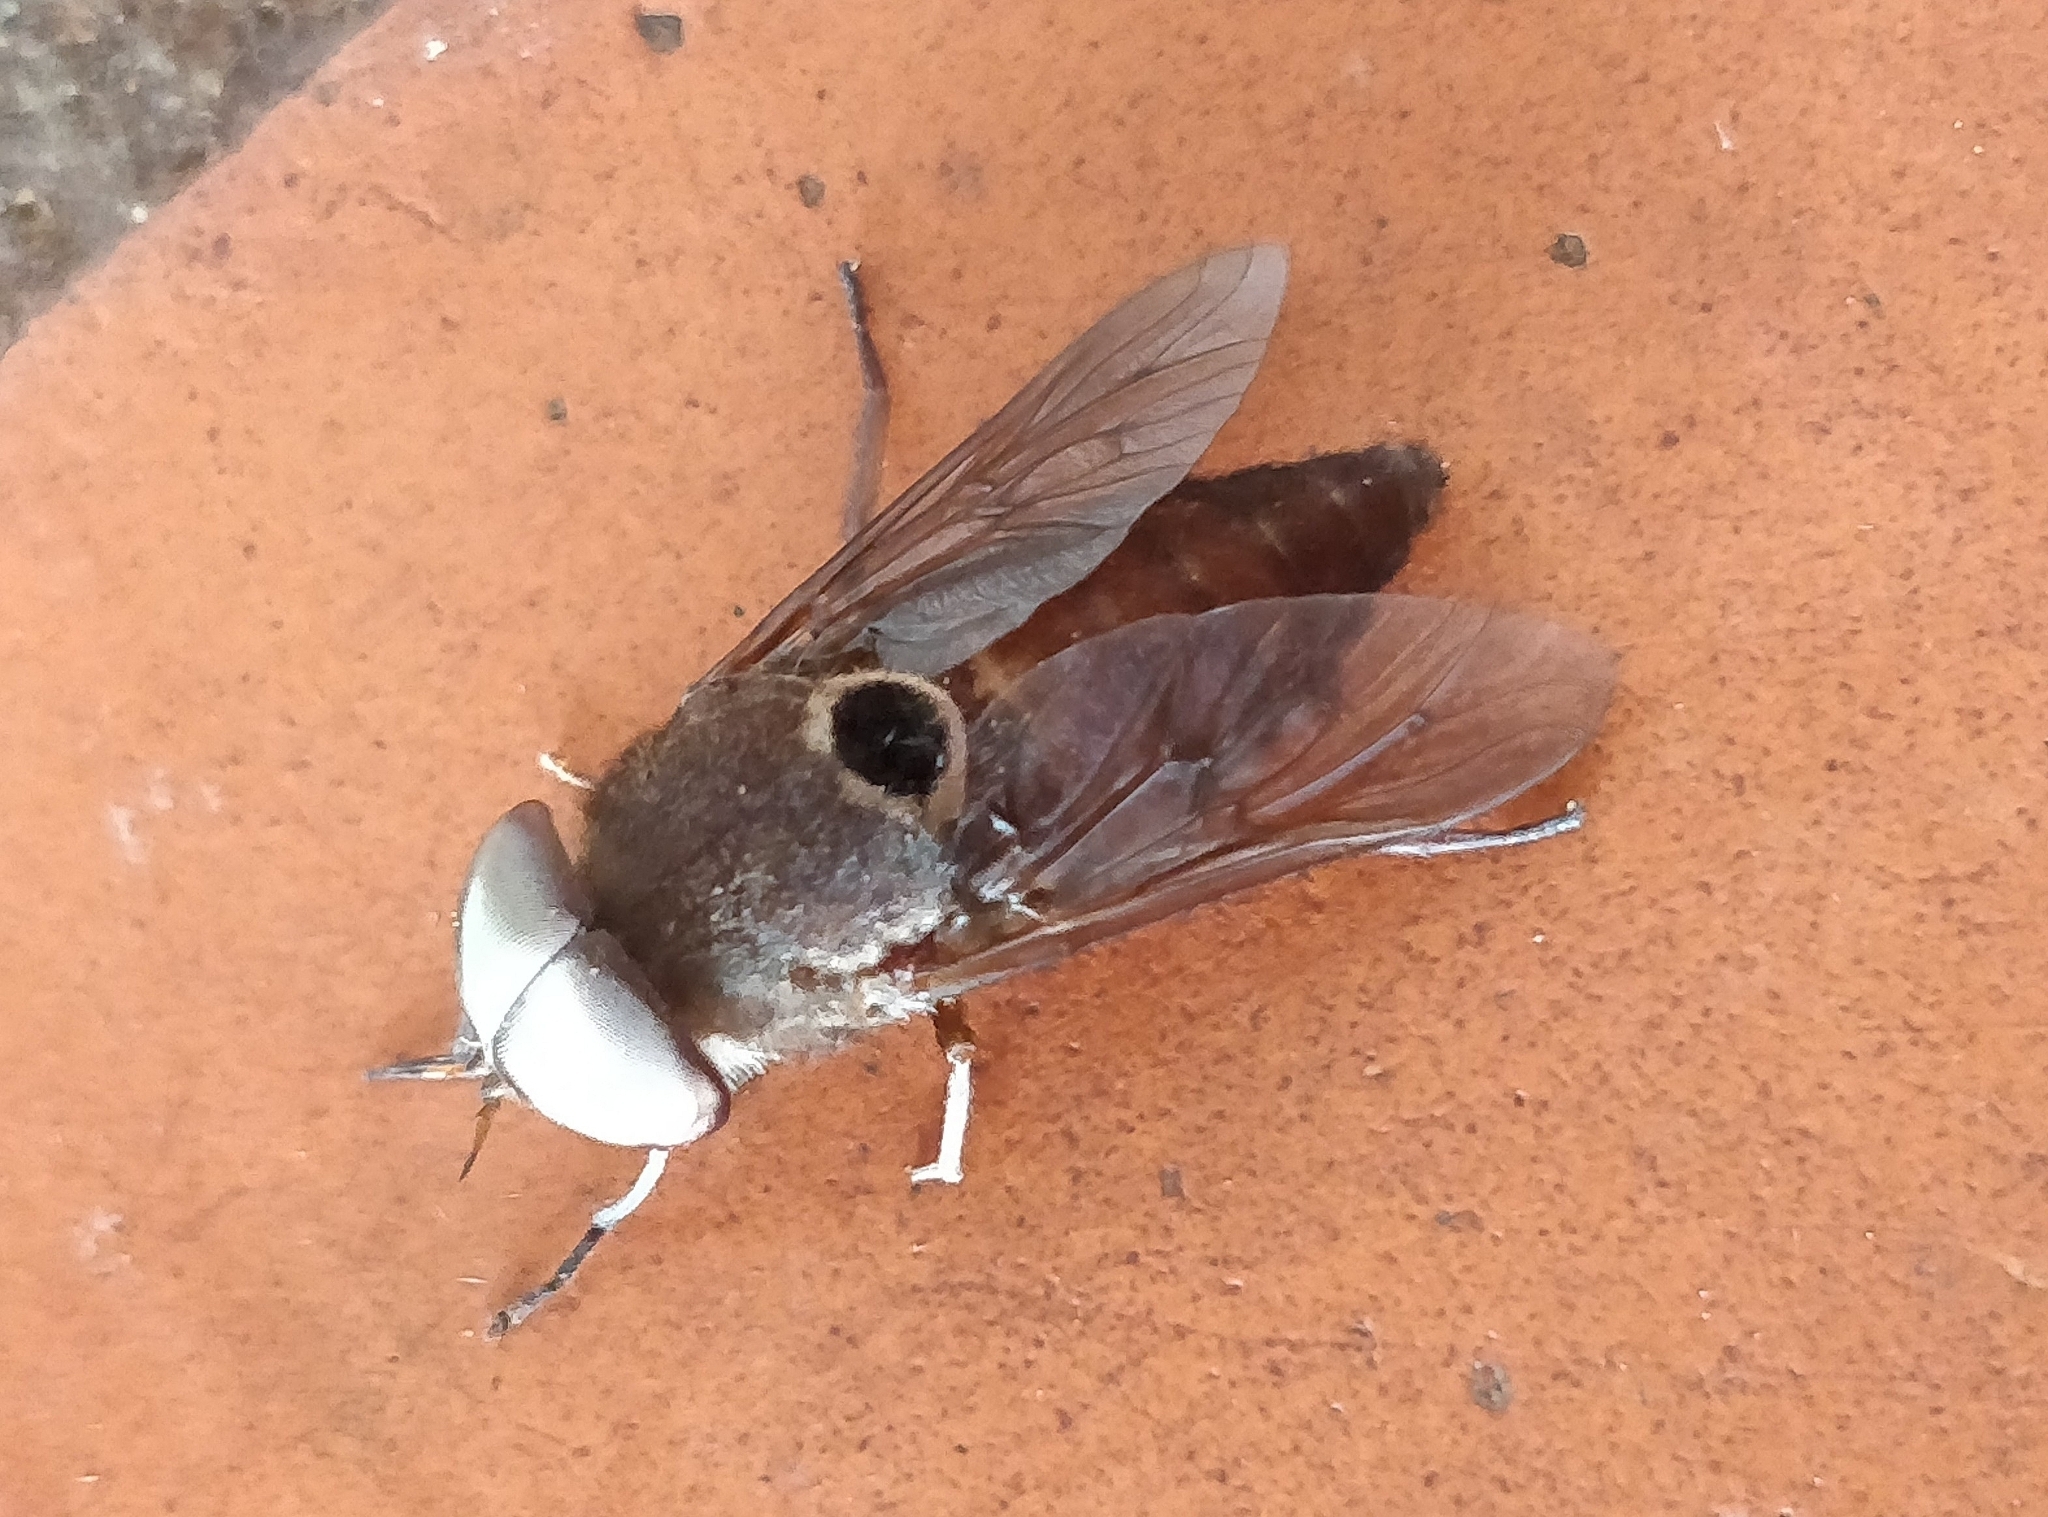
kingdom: Animalia
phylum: Arthropoda
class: Insecta
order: Diptera
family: Tabanidae
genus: Tabanus
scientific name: Tabanus albocirculus
